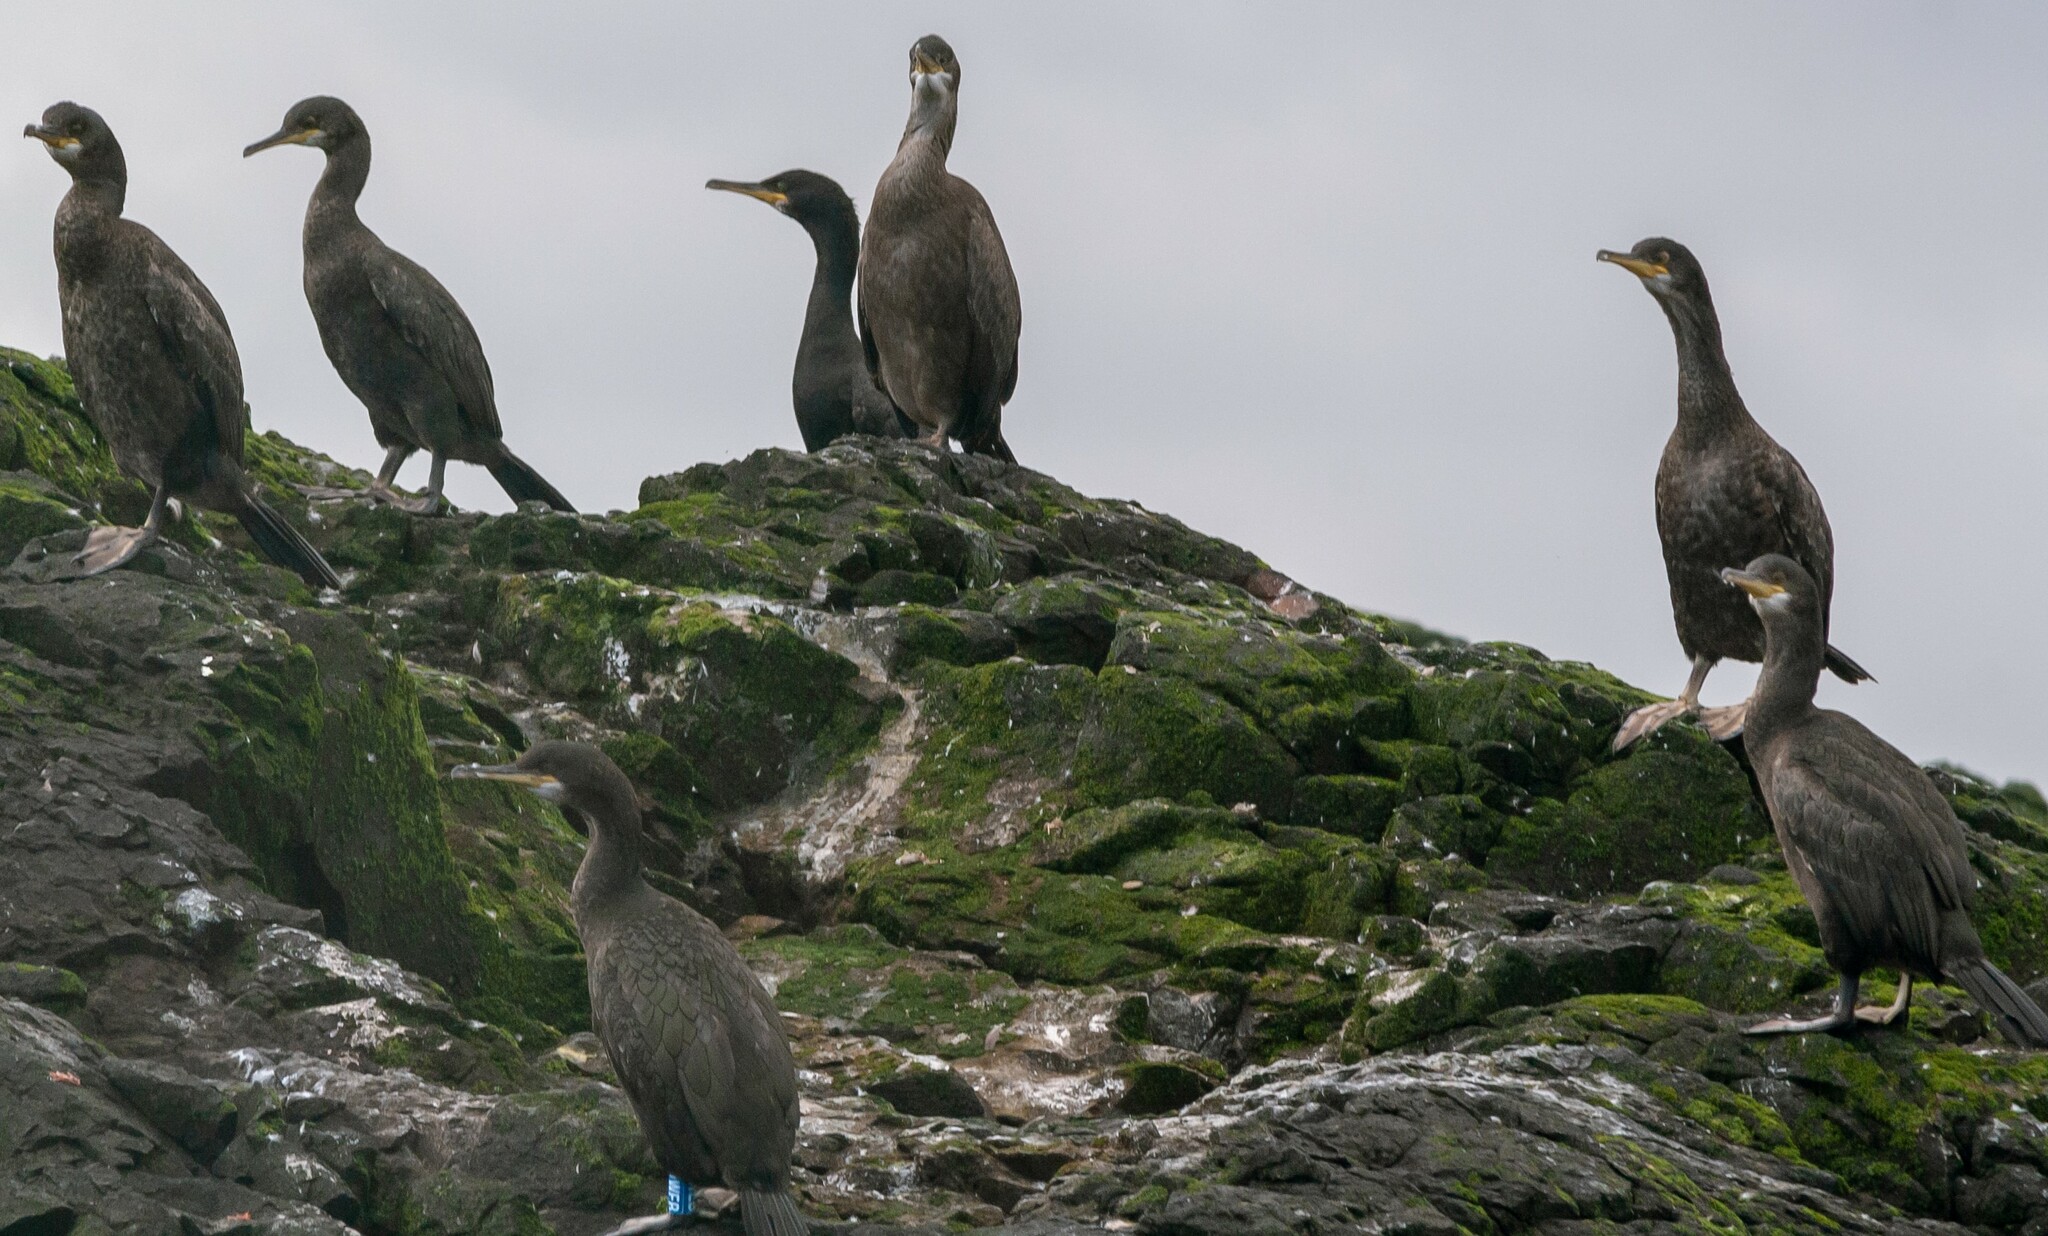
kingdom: Animalia
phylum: Chordata
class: Aves
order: Suliformes
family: Phalacrocoracidae
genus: Phalacrocorax
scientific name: Phalacrocorax aristotelis
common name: European shag
